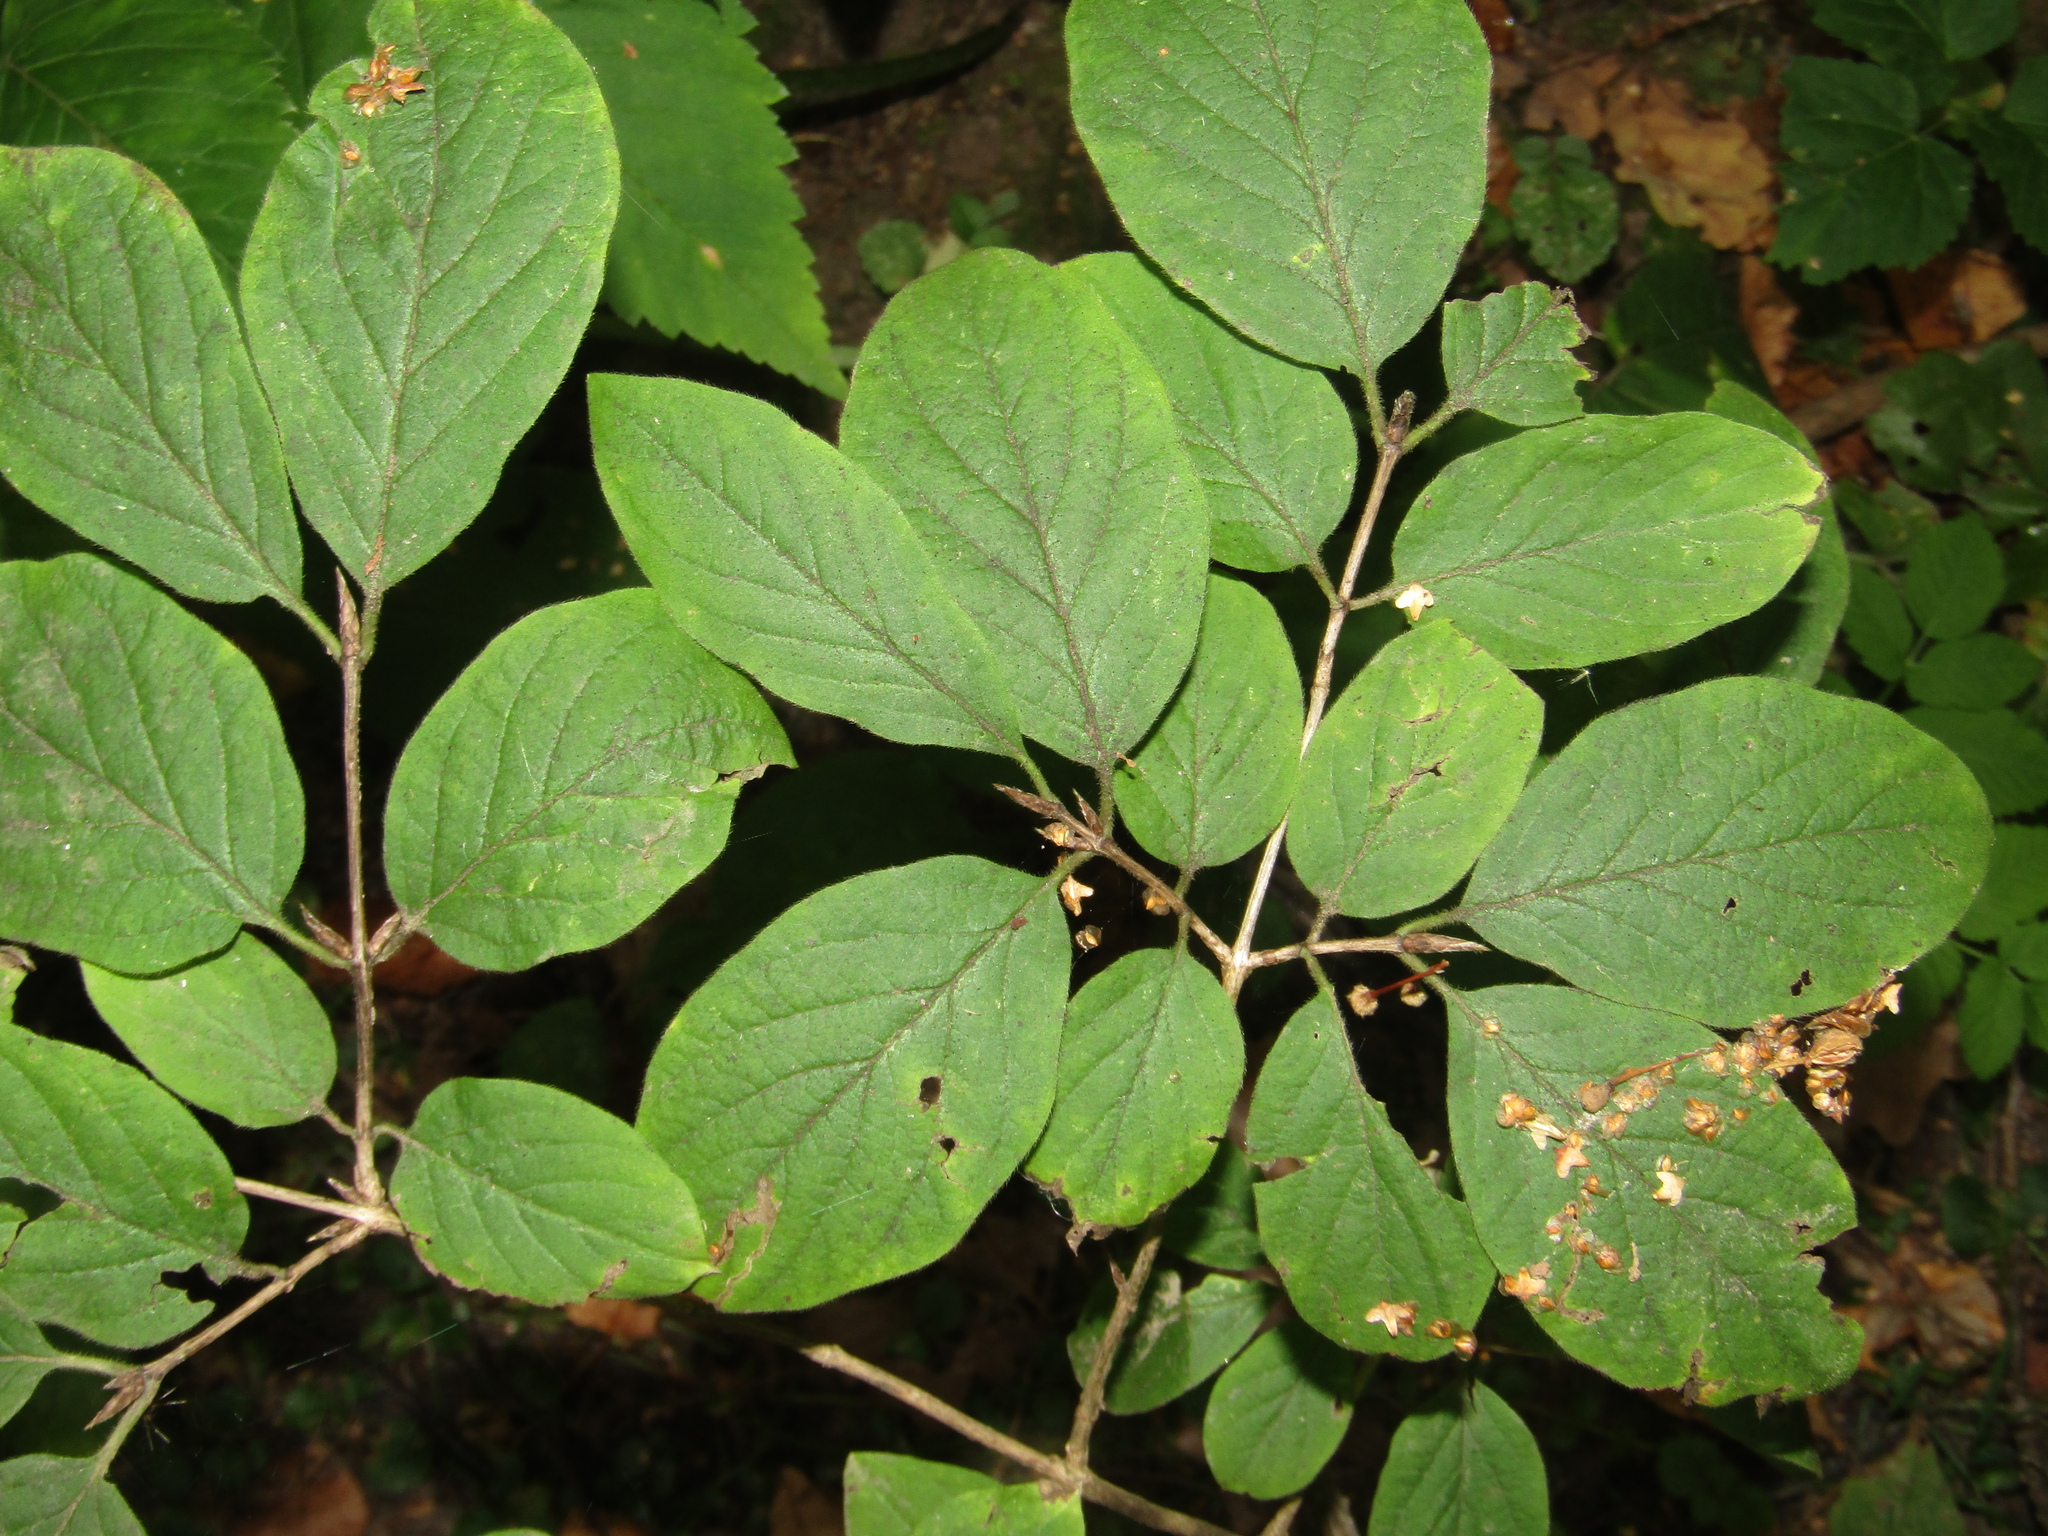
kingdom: Plantae
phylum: Tracheophyta
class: Magnoliopsida
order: Dipsacales
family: Caprifoliaceae
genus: Lonicera
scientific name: Lonicera xylosteum
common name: Fly honeysuckle
